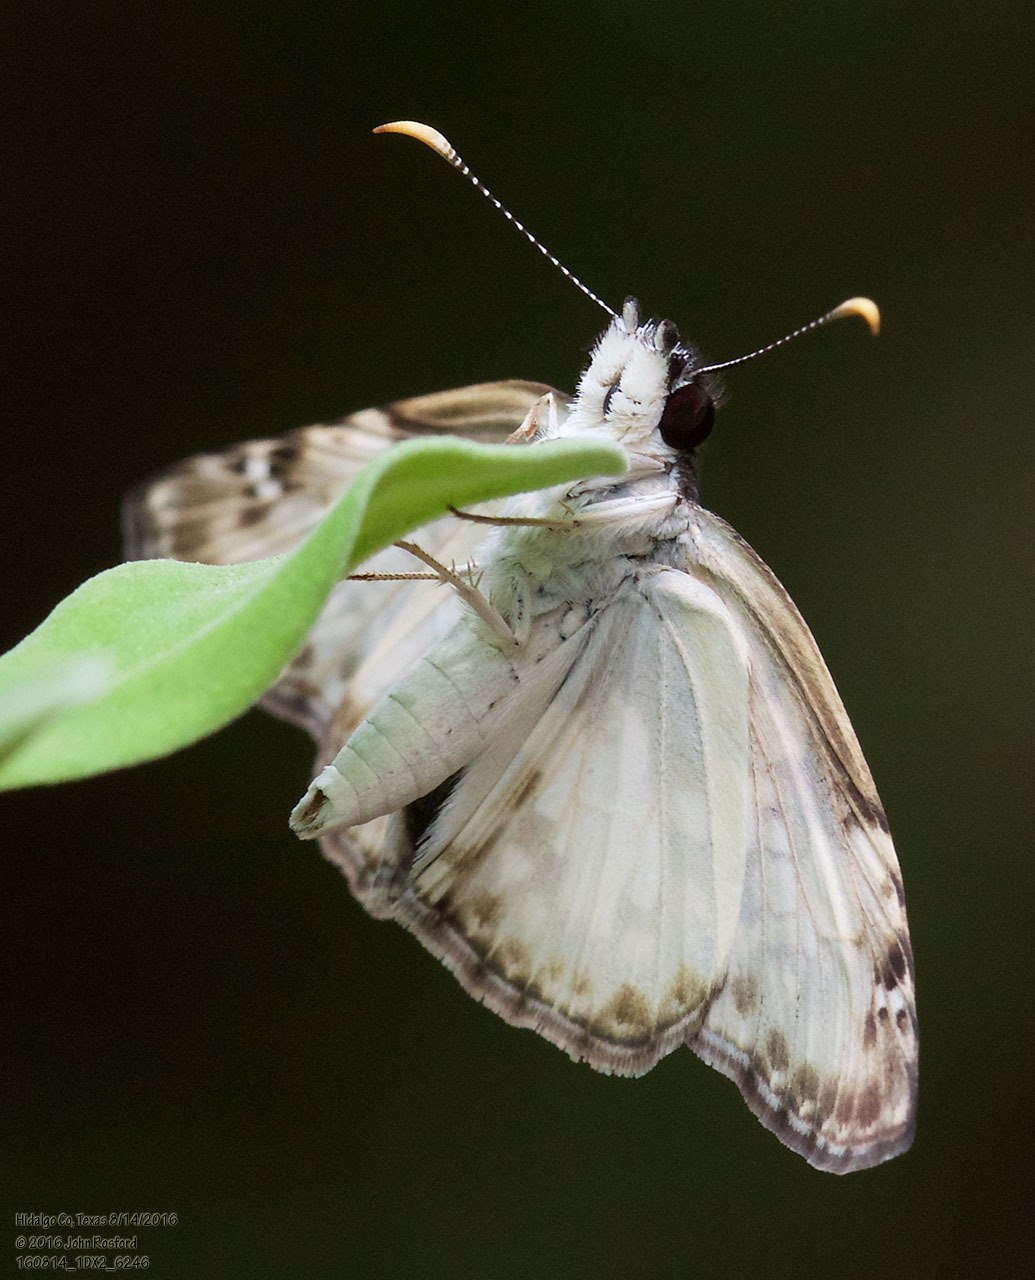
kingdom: Animalia
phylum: Arthropoda
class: Insecta
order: Lepidoptera
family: Hesperiidae
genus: Chiothion
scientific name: Chiothion georgina
